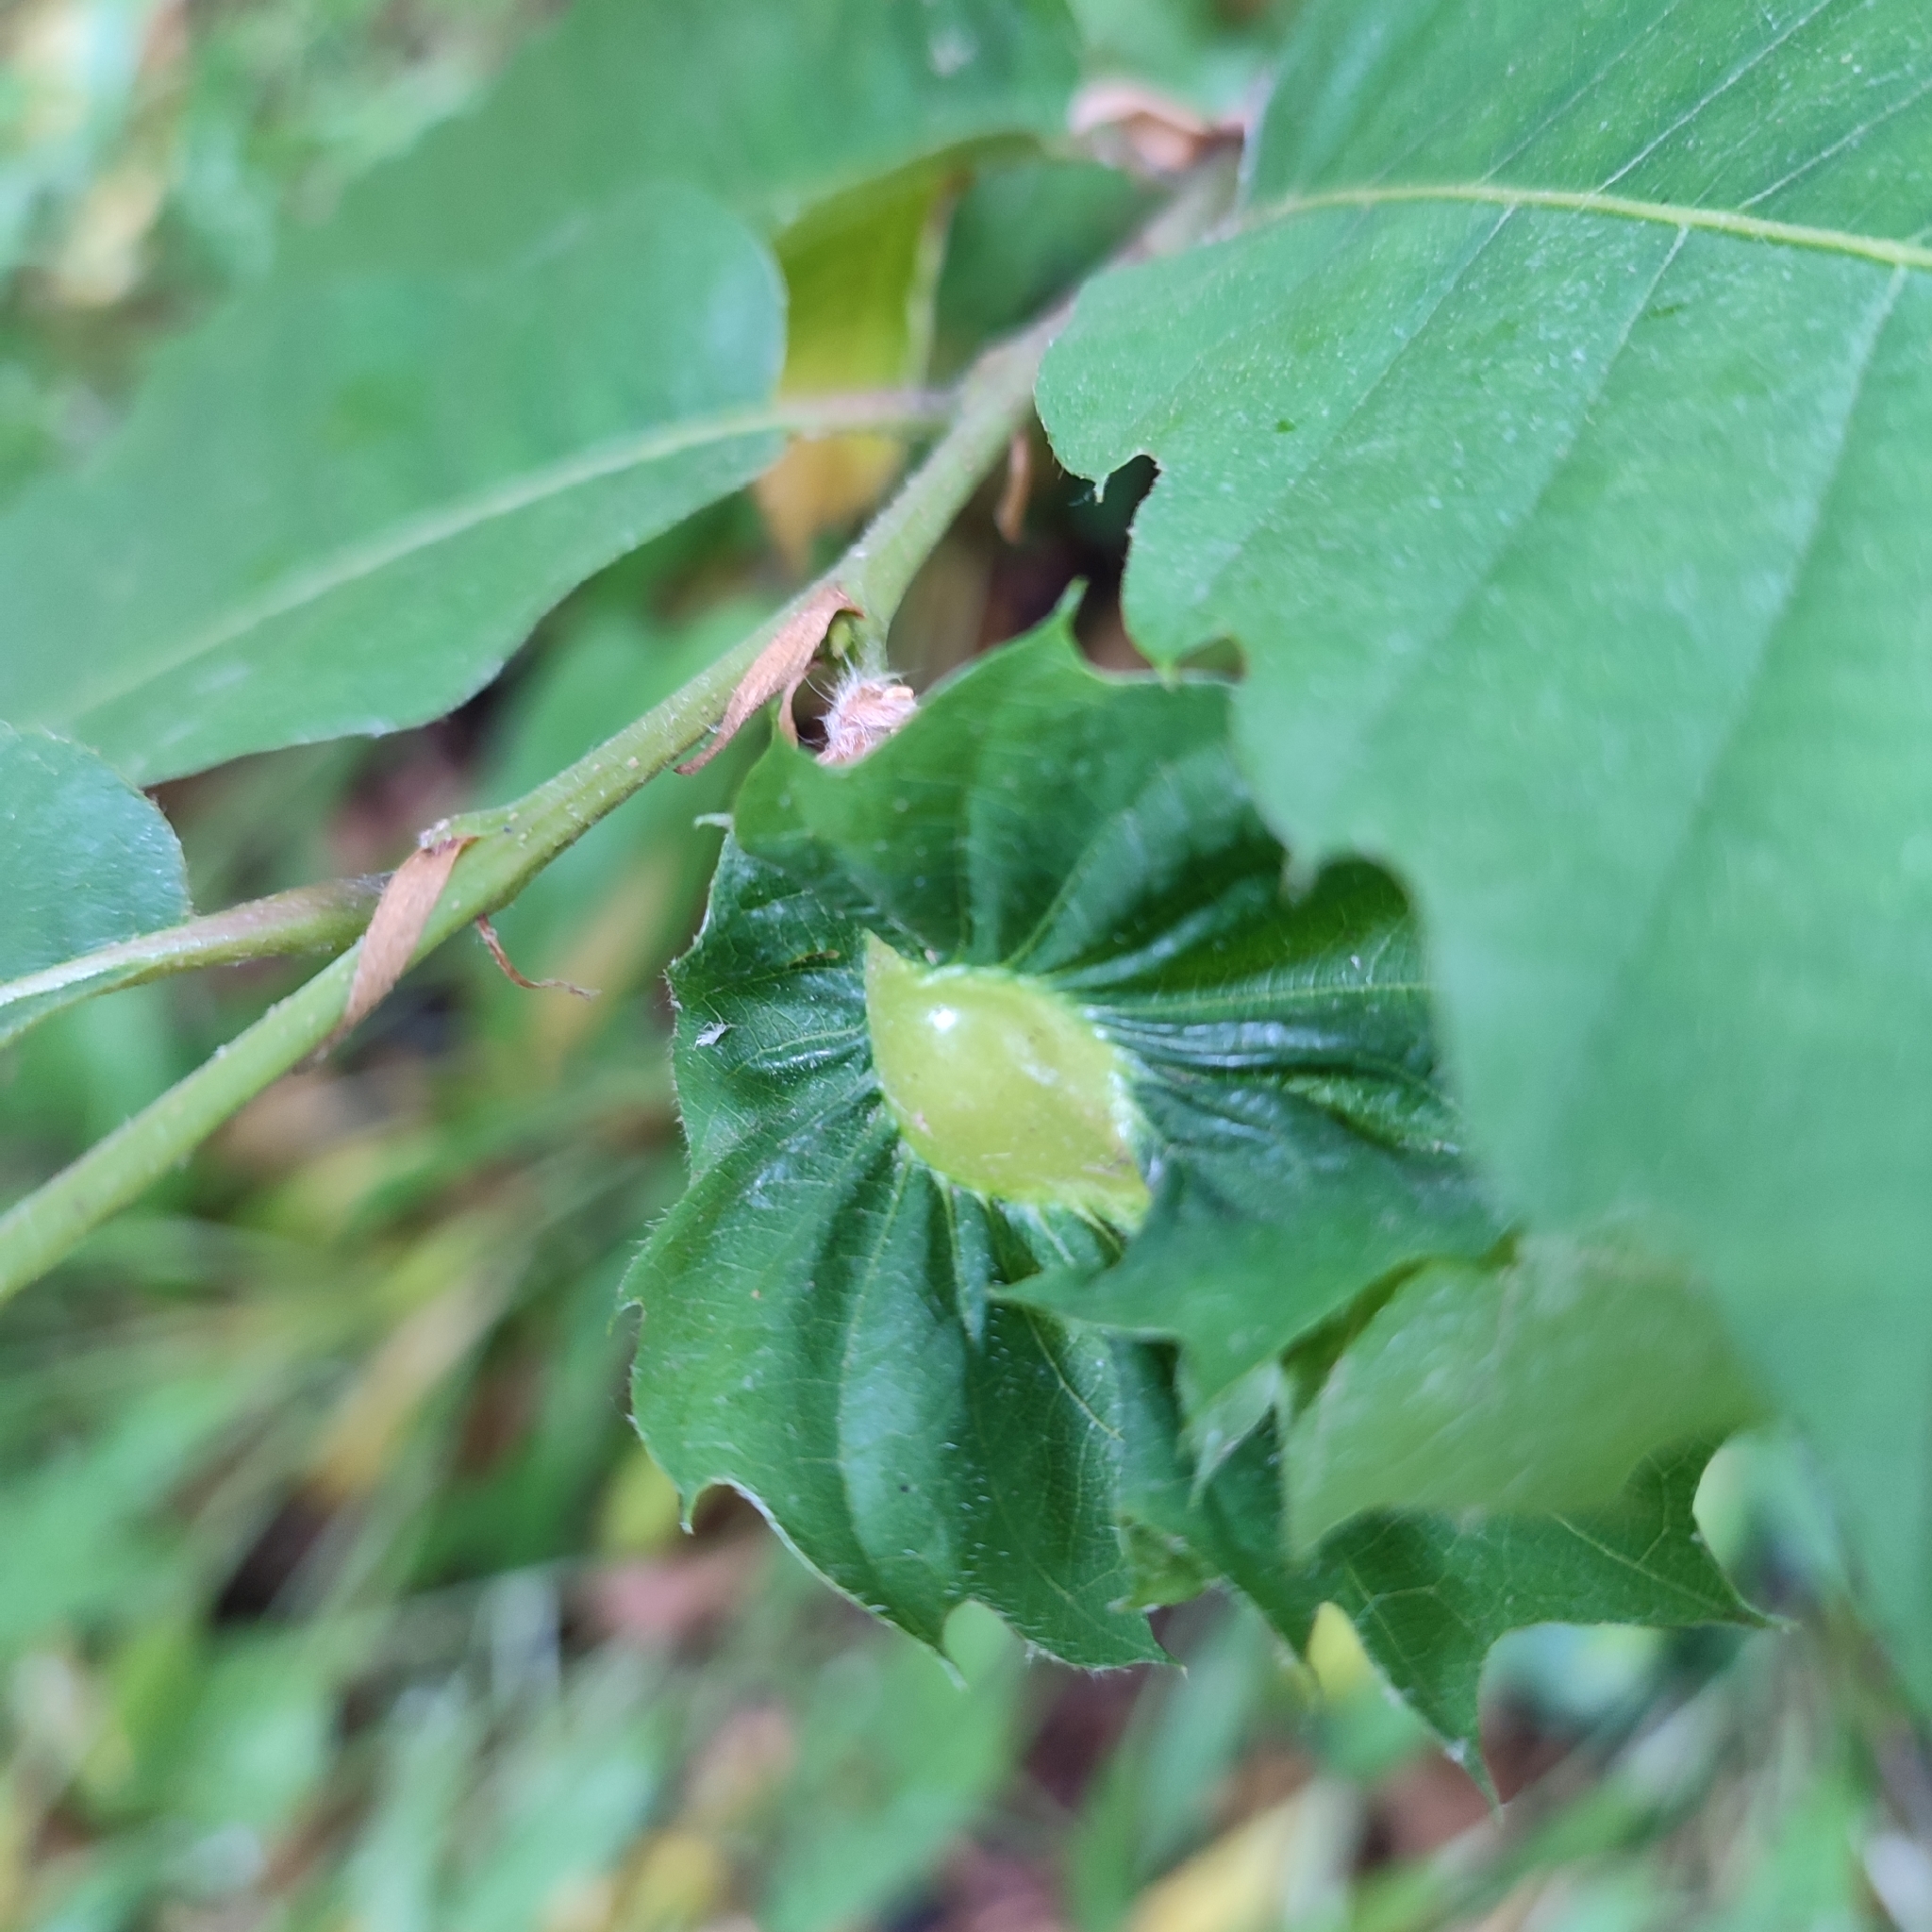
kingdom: Animalia
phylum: Arthropoda
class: Insecta
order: Hymenoptera
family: Cynipidae
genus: Dryocosmus
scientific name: Dryocosmus kuriphilus
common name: Asian chestnut gall wasp
